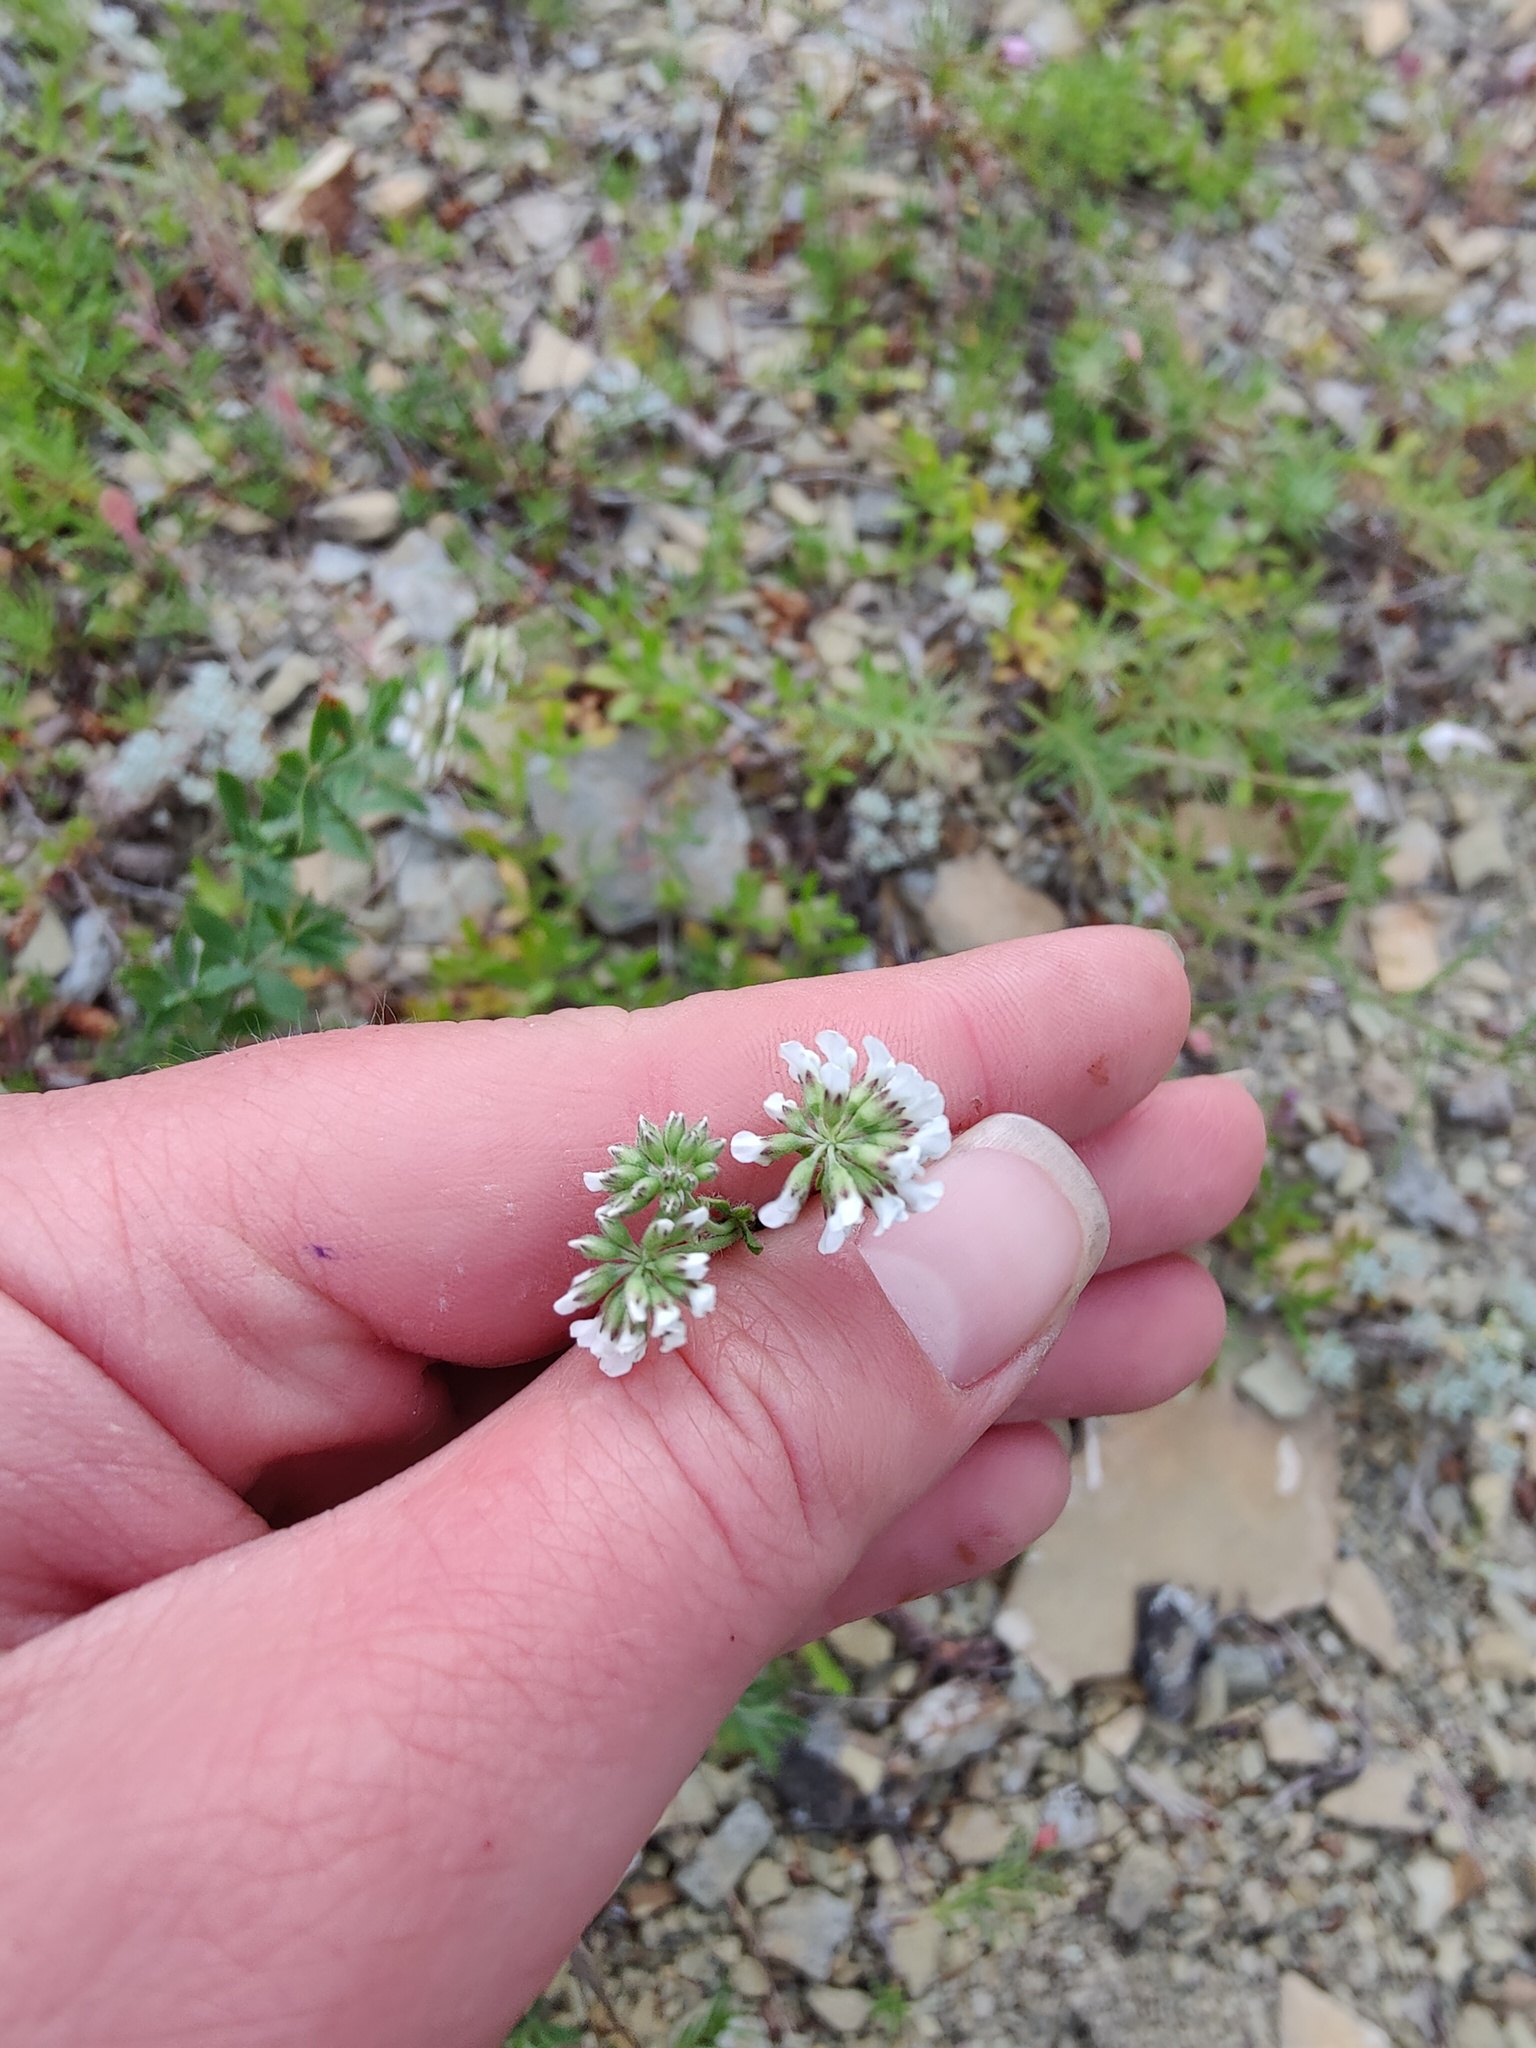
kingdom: Plantae
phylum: Tracheophyta
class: Magnoliopsida
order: Fabales
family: Fabaceae
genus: Lotus
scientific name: Lotus herbaceus
